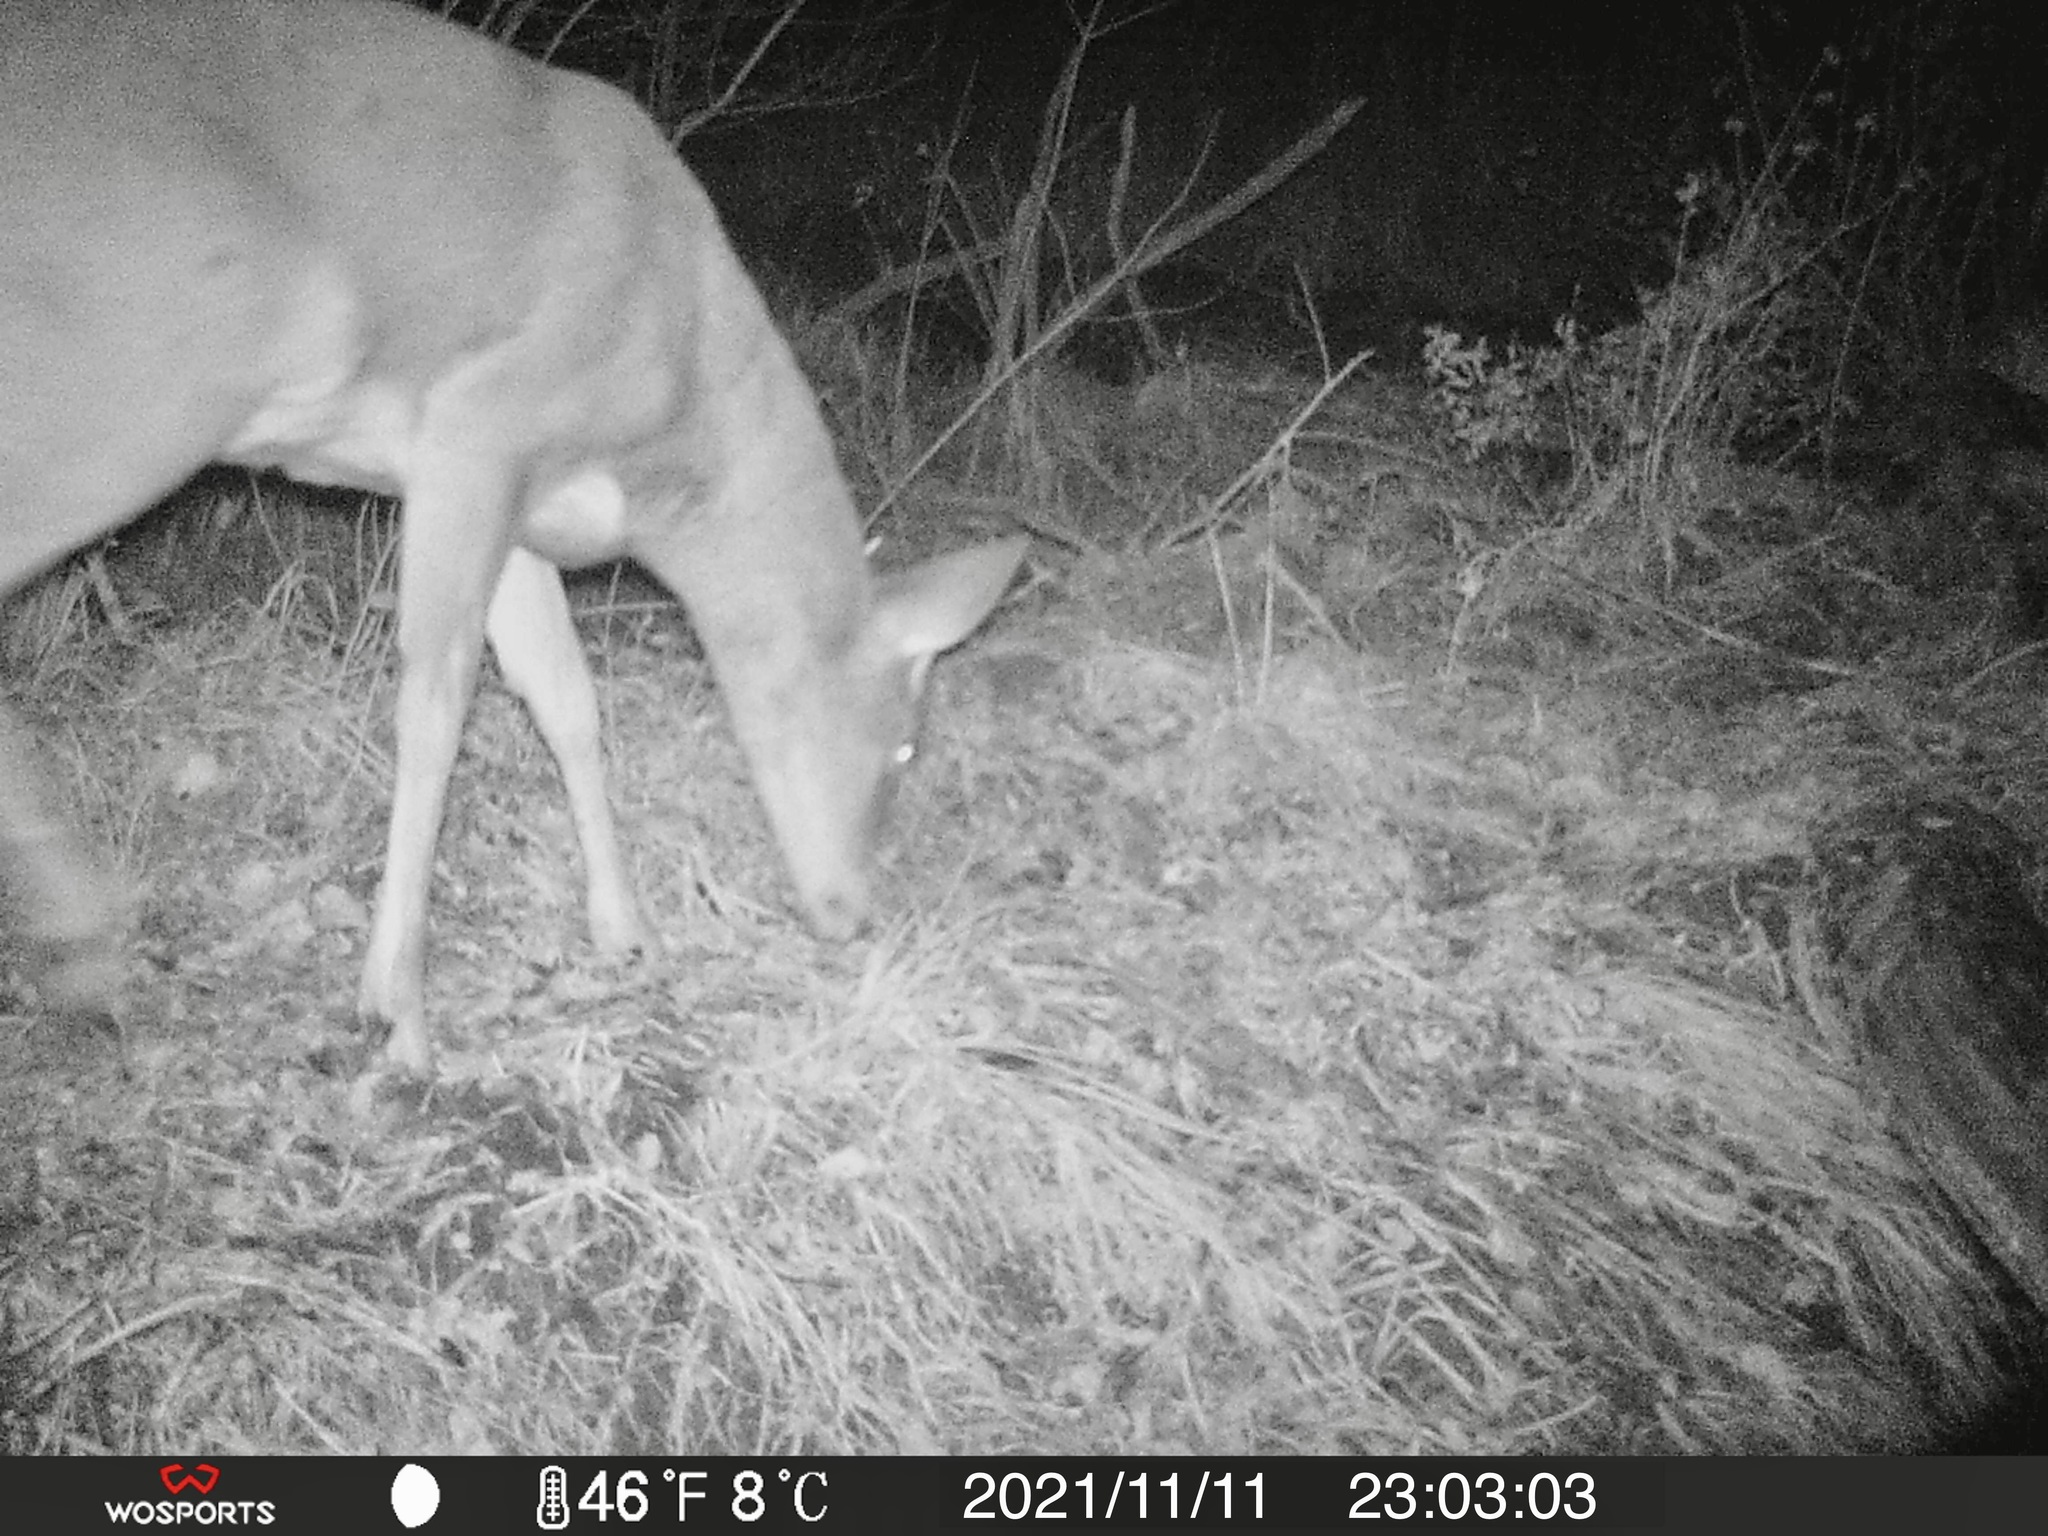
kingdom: Animalia
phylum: Chordata
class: Mammalia
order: Artiodactyla
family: Cervidae
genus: Odocoileus
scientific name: Odocoileus virginianus
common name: White-tailed deer
